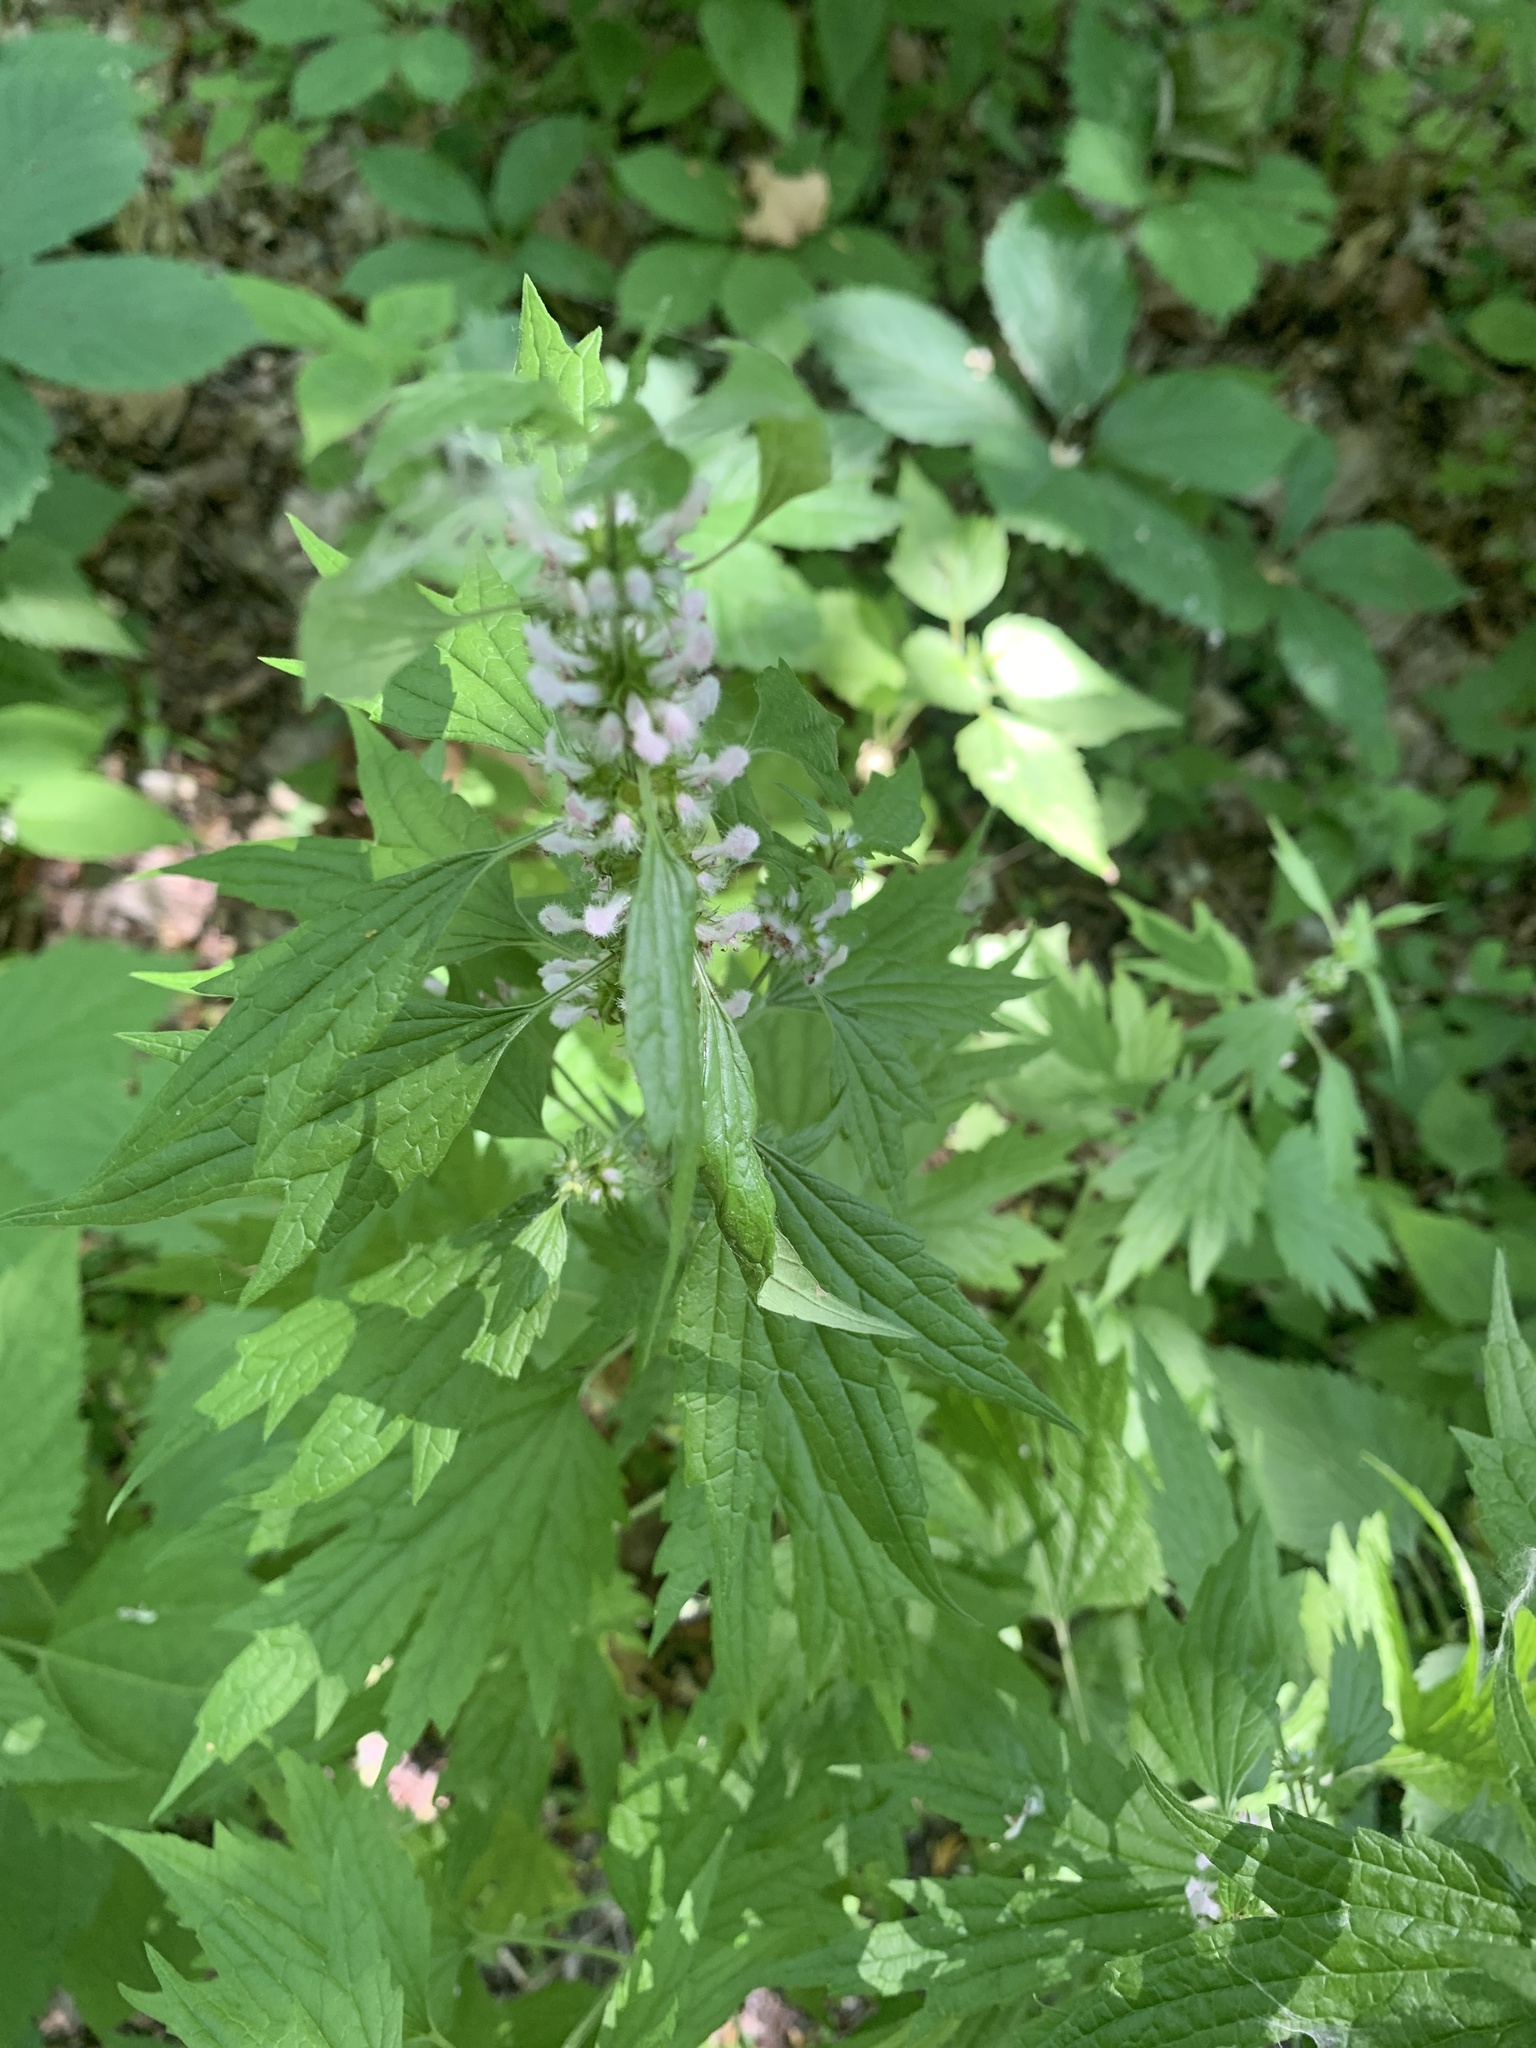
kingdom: Plantae
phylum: Tracheophyta
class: Magnoliopsida
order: Lamiales
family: Lamiaceae
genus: Leonurus
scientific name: Leonurus cardiaca
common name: Motherwort
